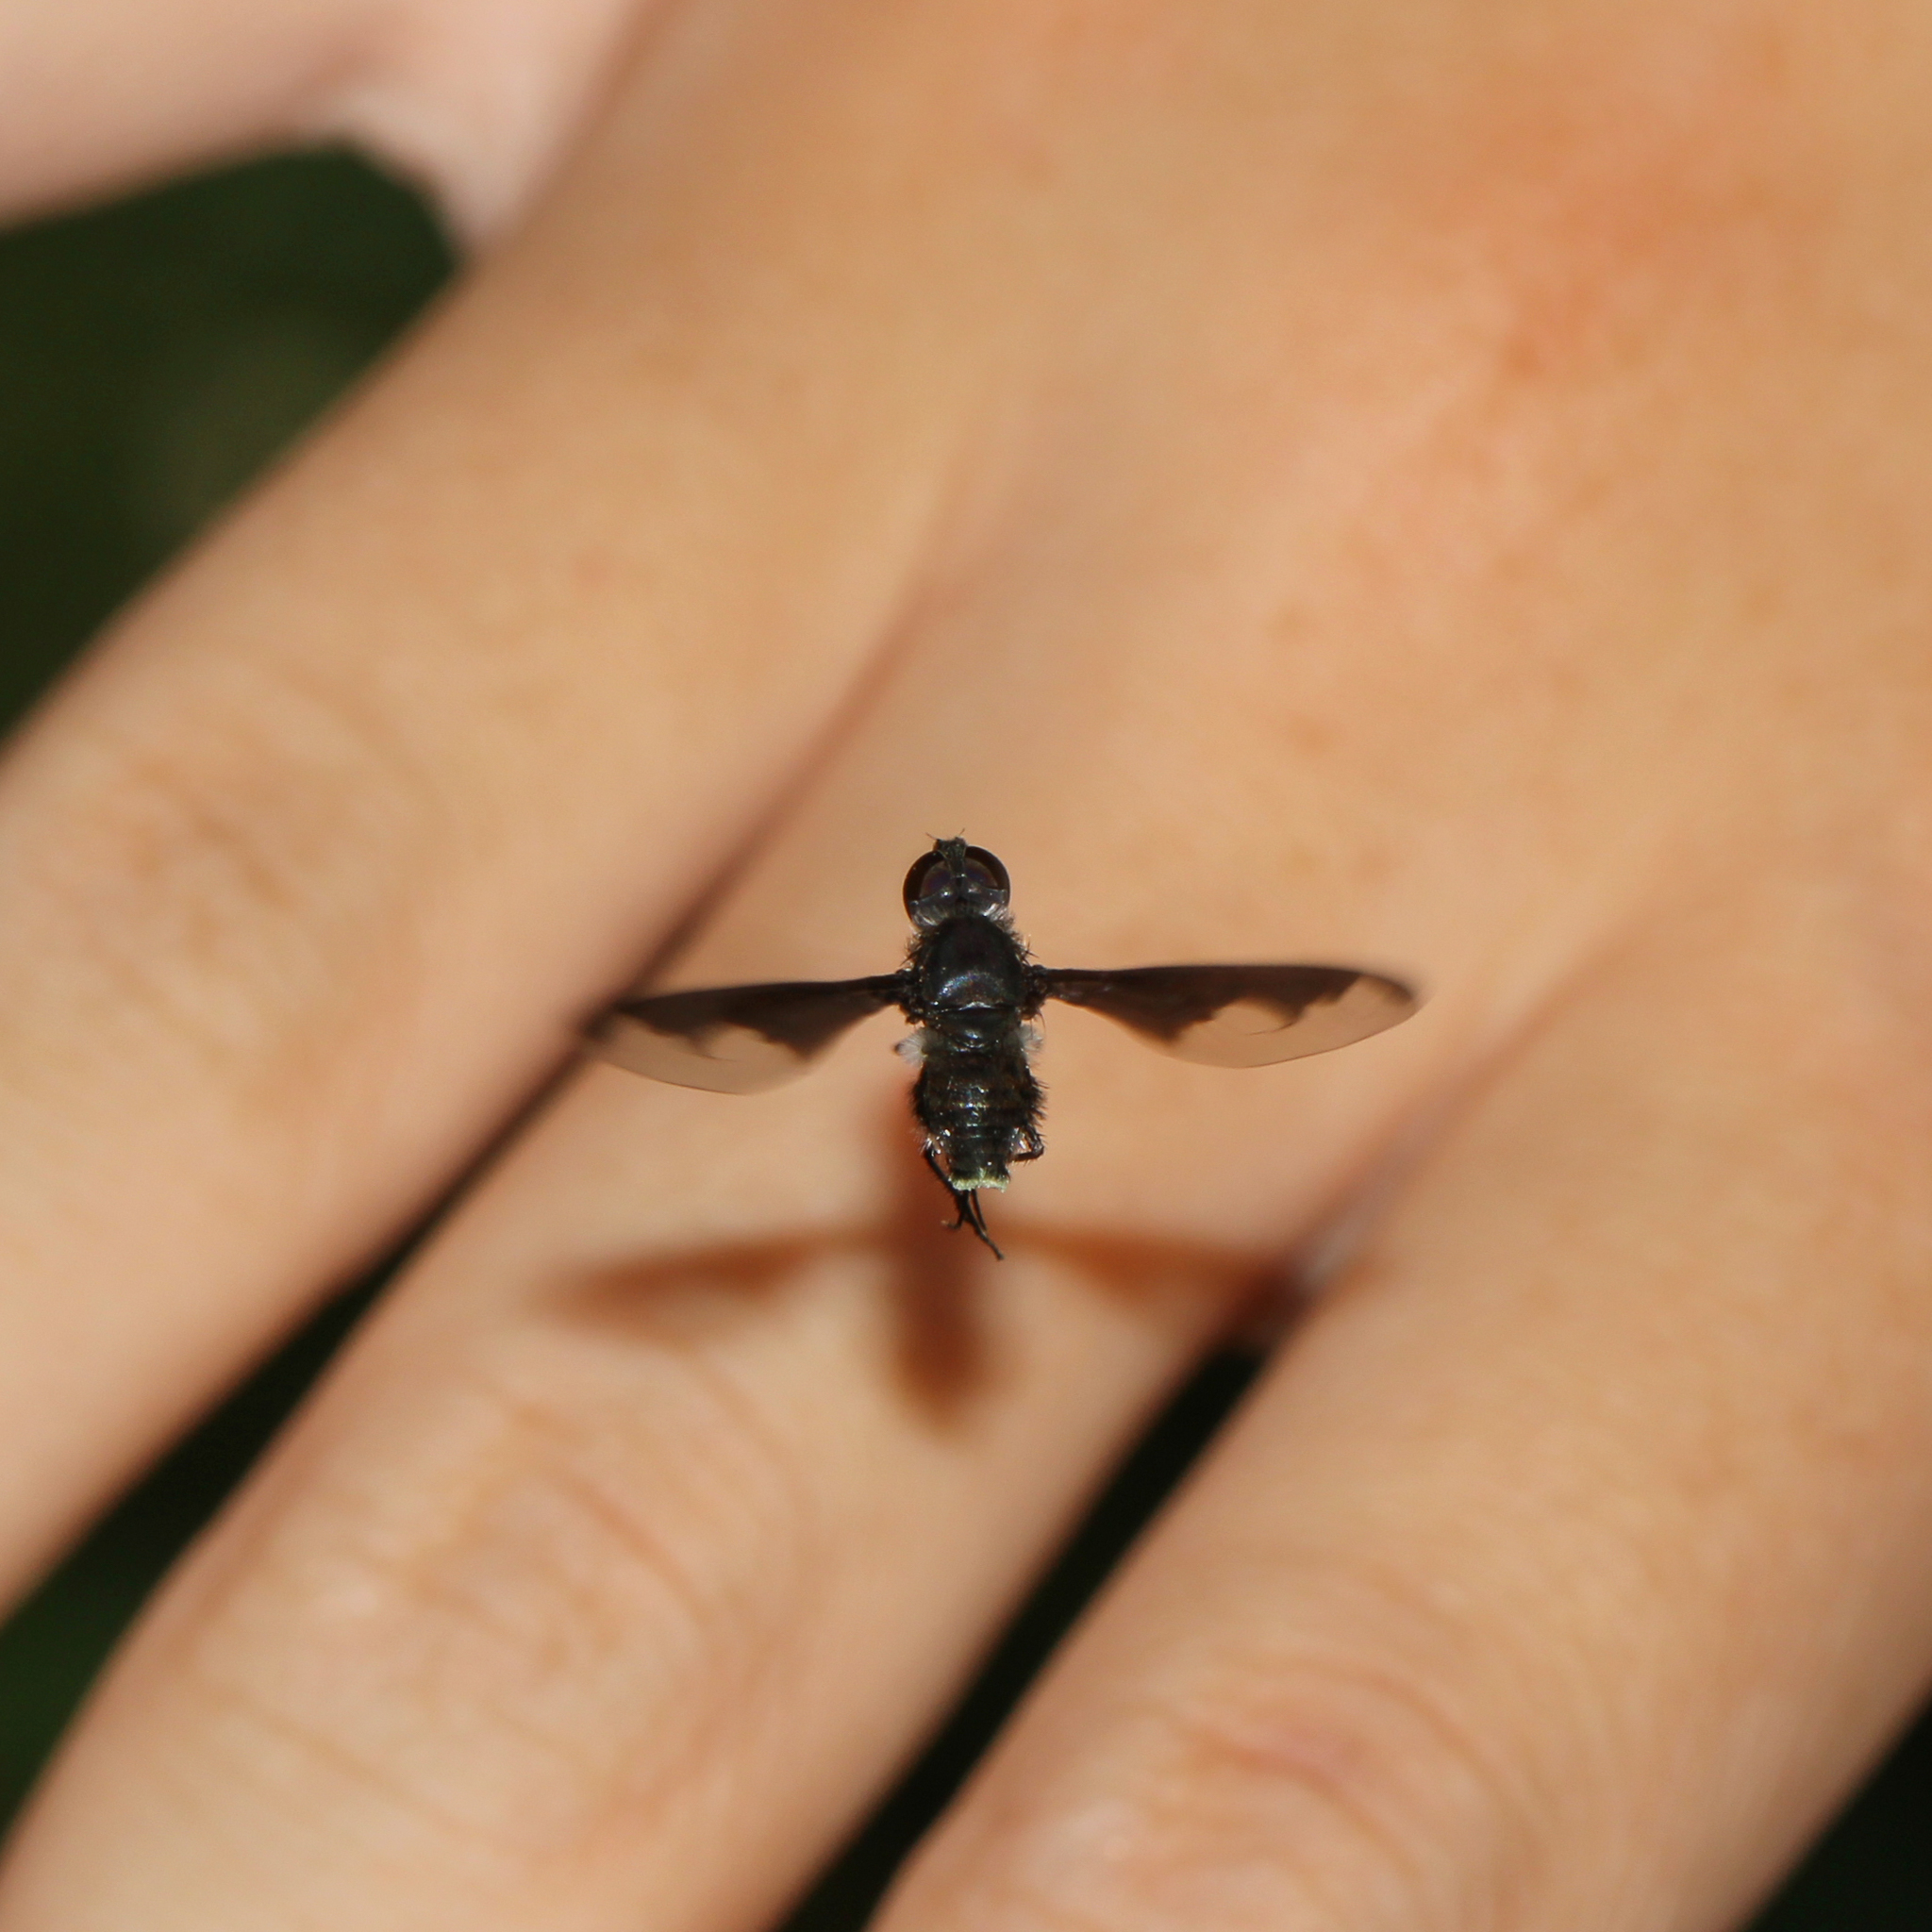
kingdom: Animalia
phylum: Arthropoda
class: Insecta
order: Diptera
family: Bombyliidae
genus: Anthrax
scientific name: Anthrax argyropygus
